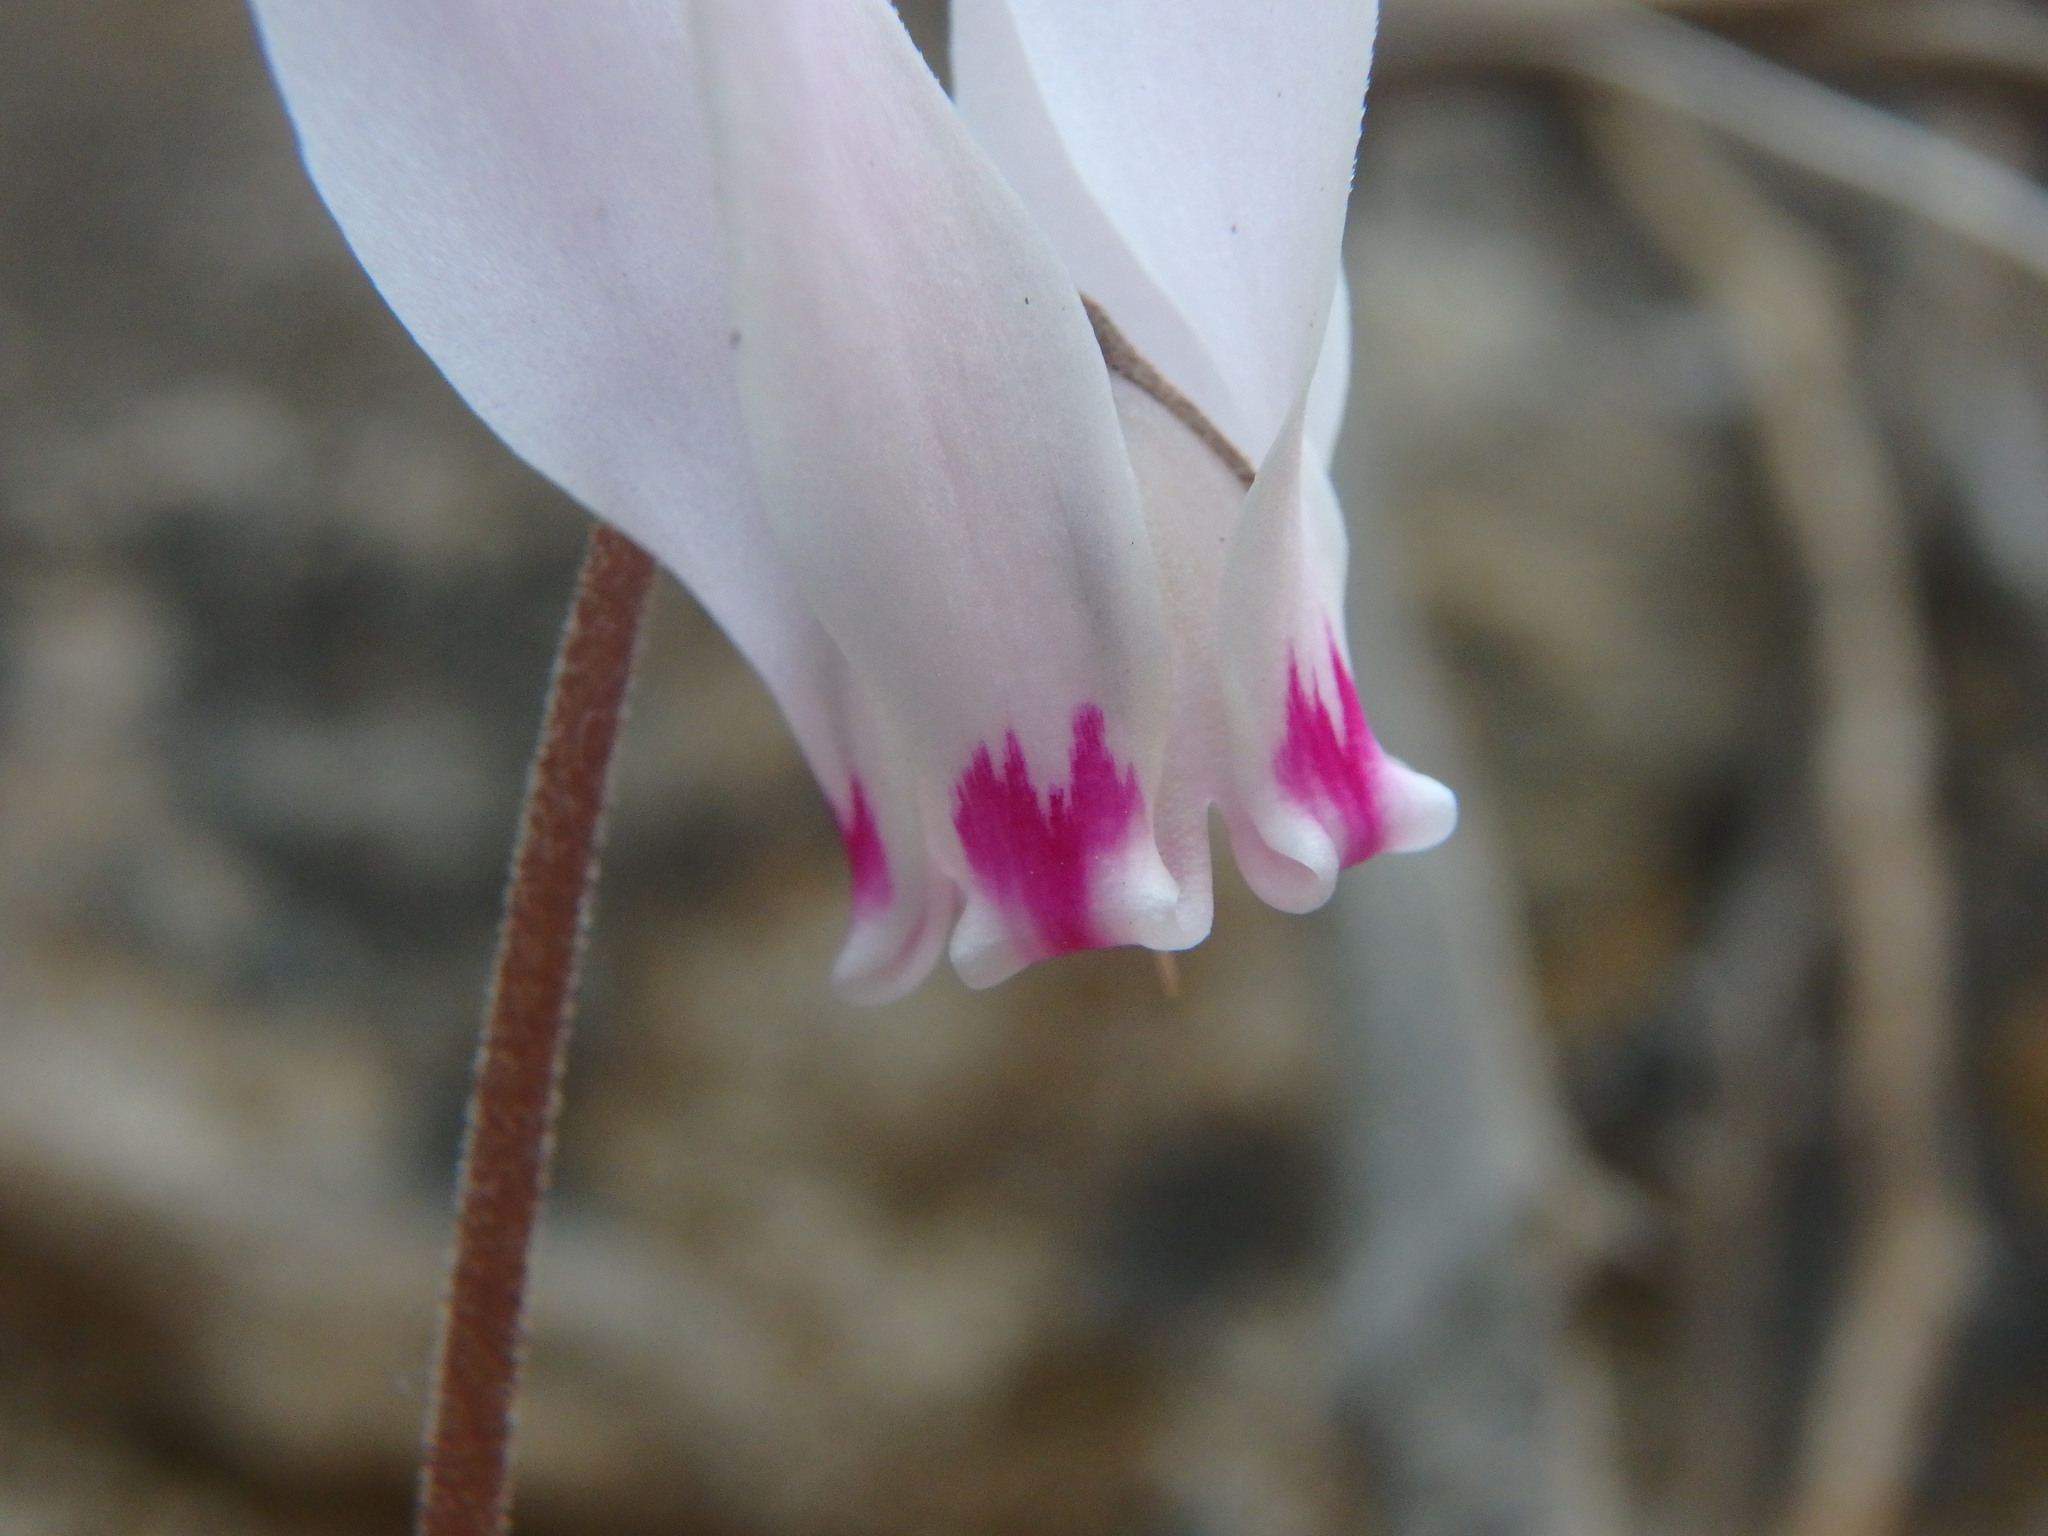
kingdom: Plantae
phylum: Tracheophyta
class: Magnoliopsida
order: Ericales
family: Primulaceae
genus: Cyclamen
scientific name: Cyclamen cyprium
